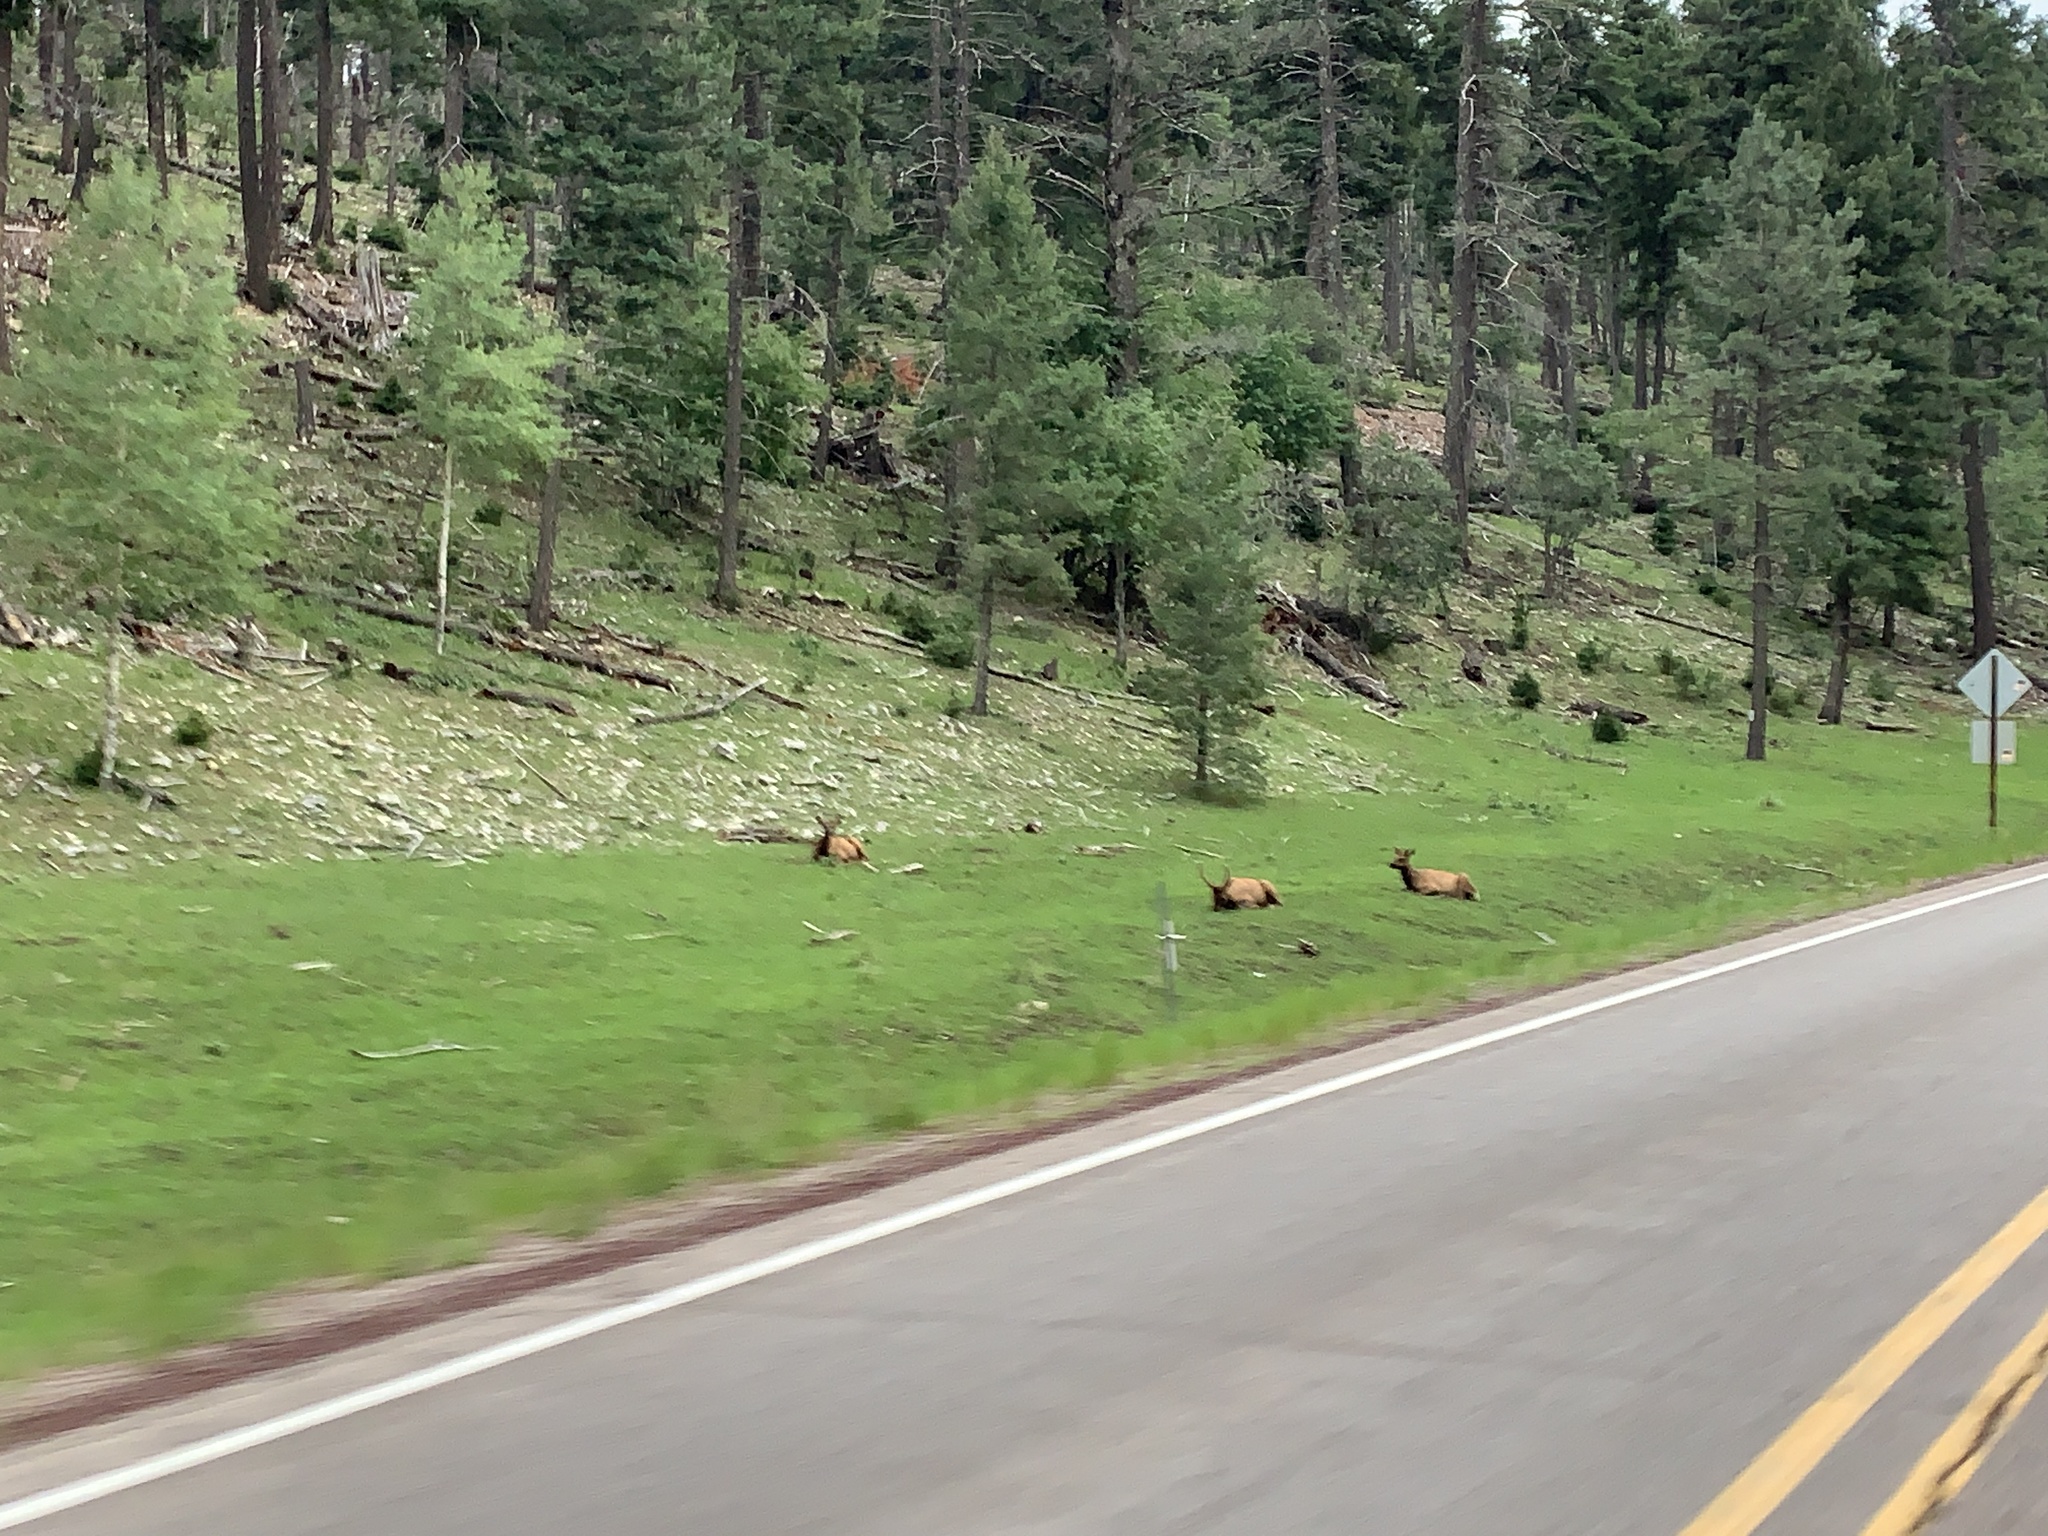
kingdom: Animalia
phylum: Chordata
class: Mammalia
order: Artiodactyla
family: Cervidae
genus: Cervus
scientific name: Cervus elaphus
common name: Red deer
